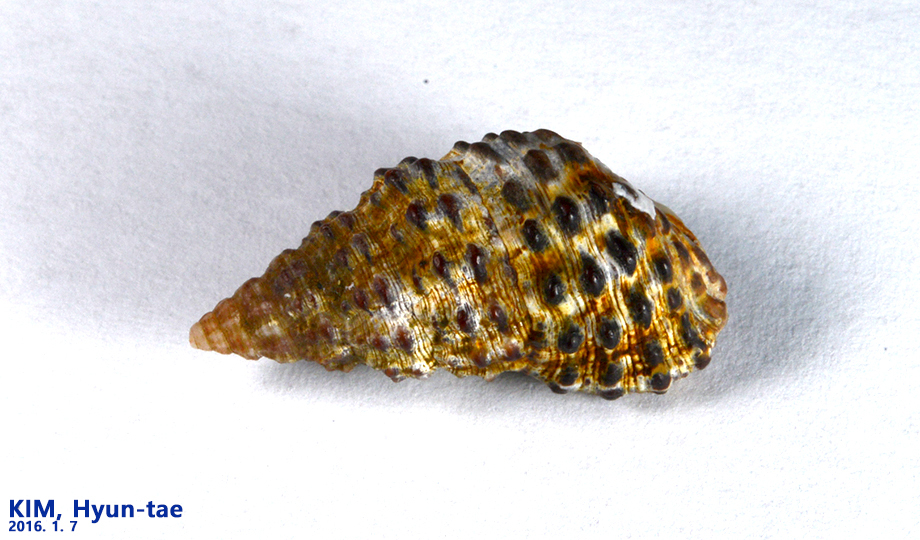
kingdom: Animalia
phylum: Mollusca
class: Gastropoda
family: Cerithiidae
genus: Clypeomorus
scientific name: Clypeomorus bifasciata
